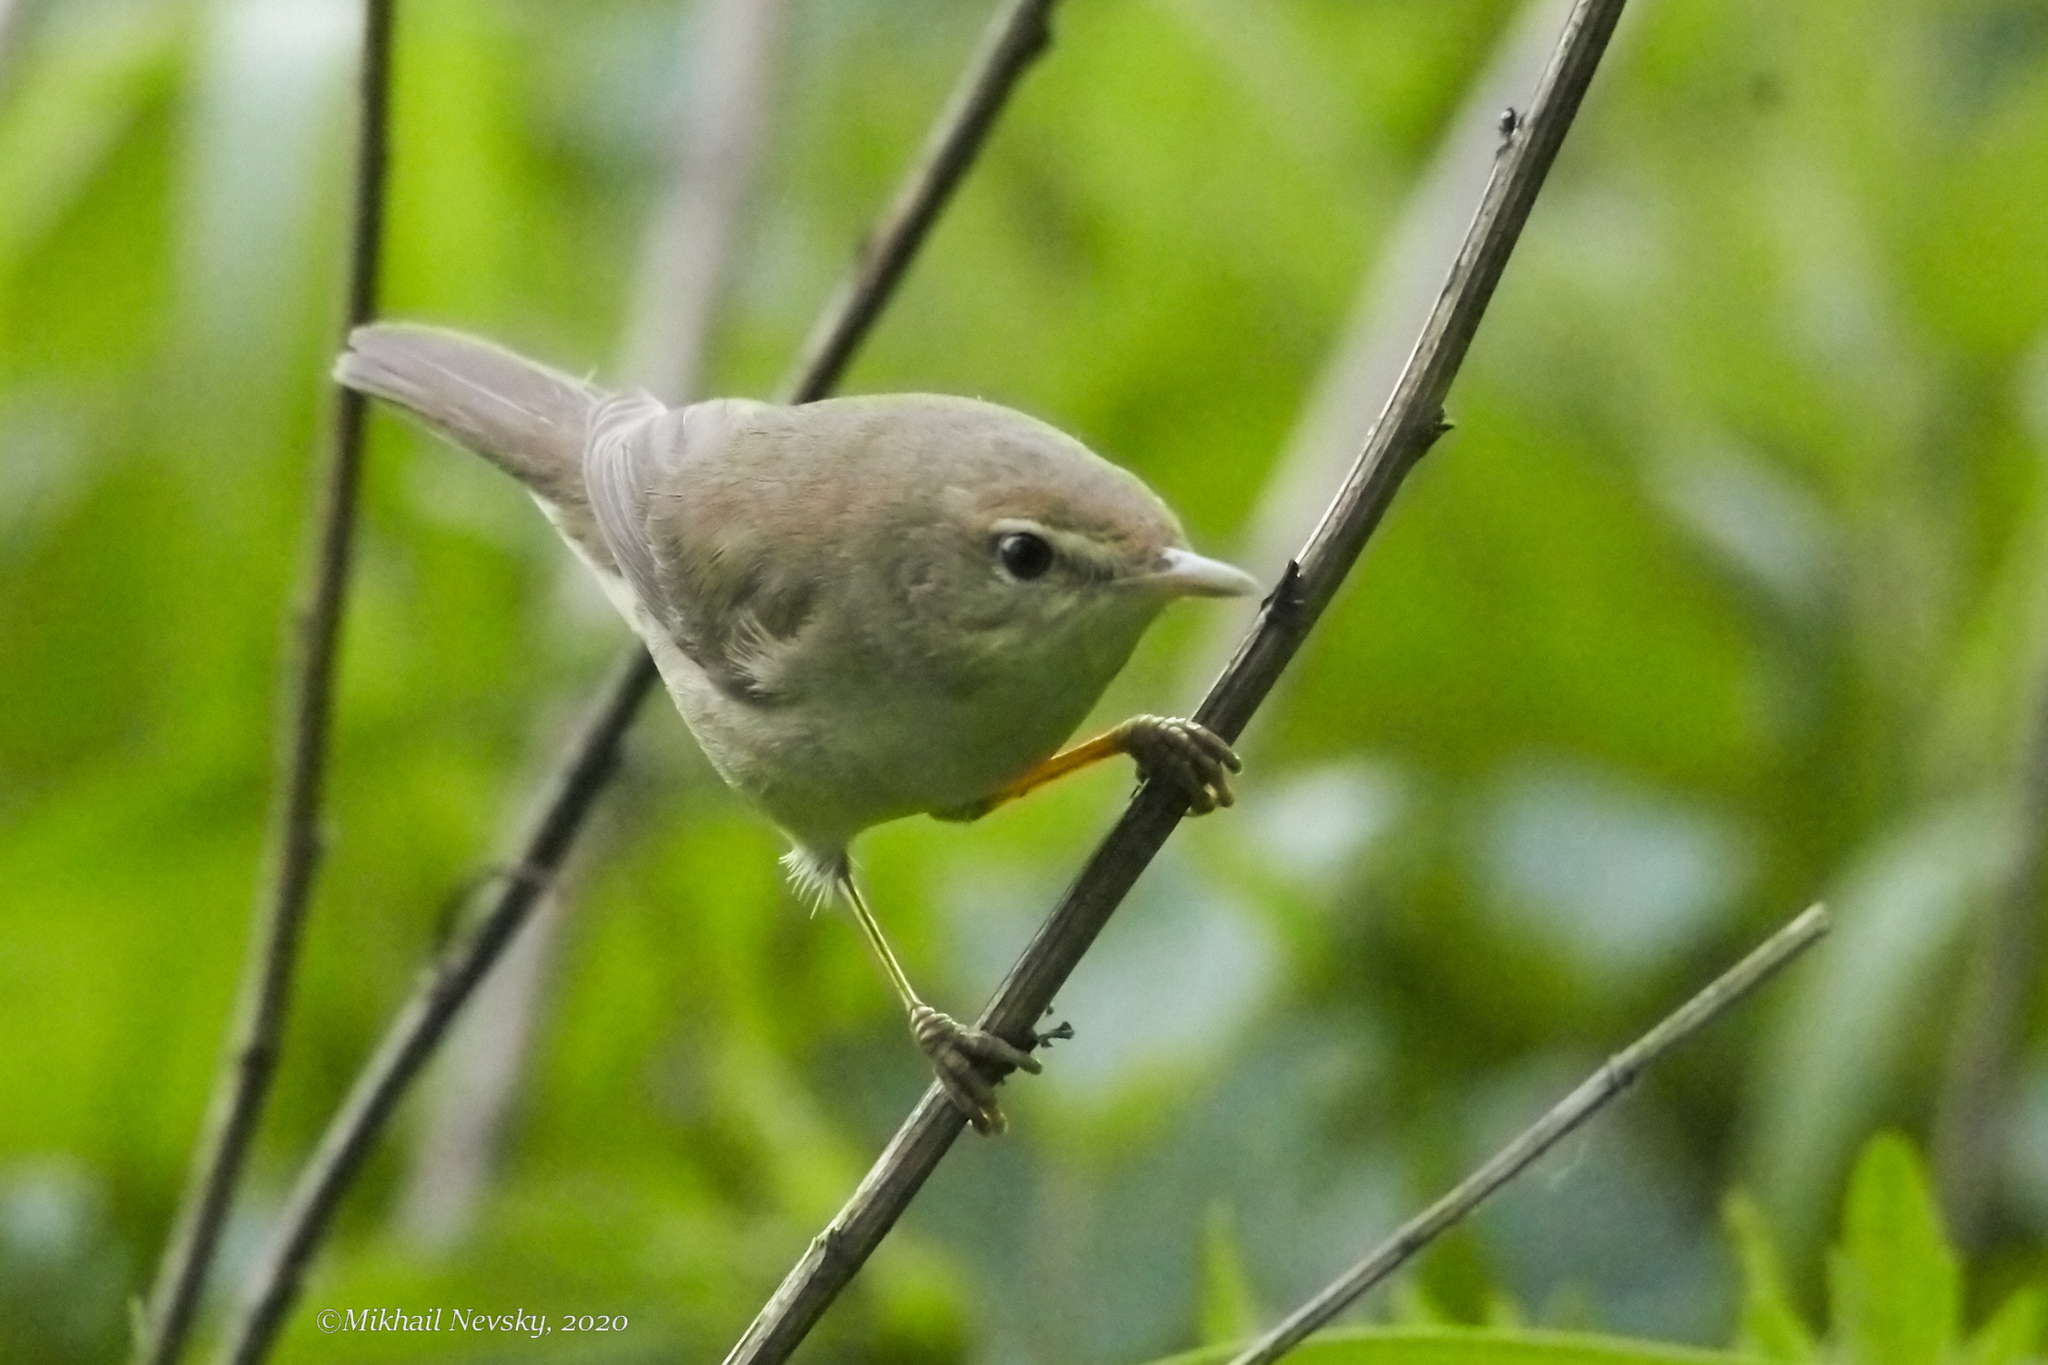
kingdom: Animalia
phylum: Chordata
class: Aves
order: Passeriformes
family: Acrocephalidae
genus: Acrocephalus
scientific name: Acrocephalus palustris
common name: Marsh warbler
